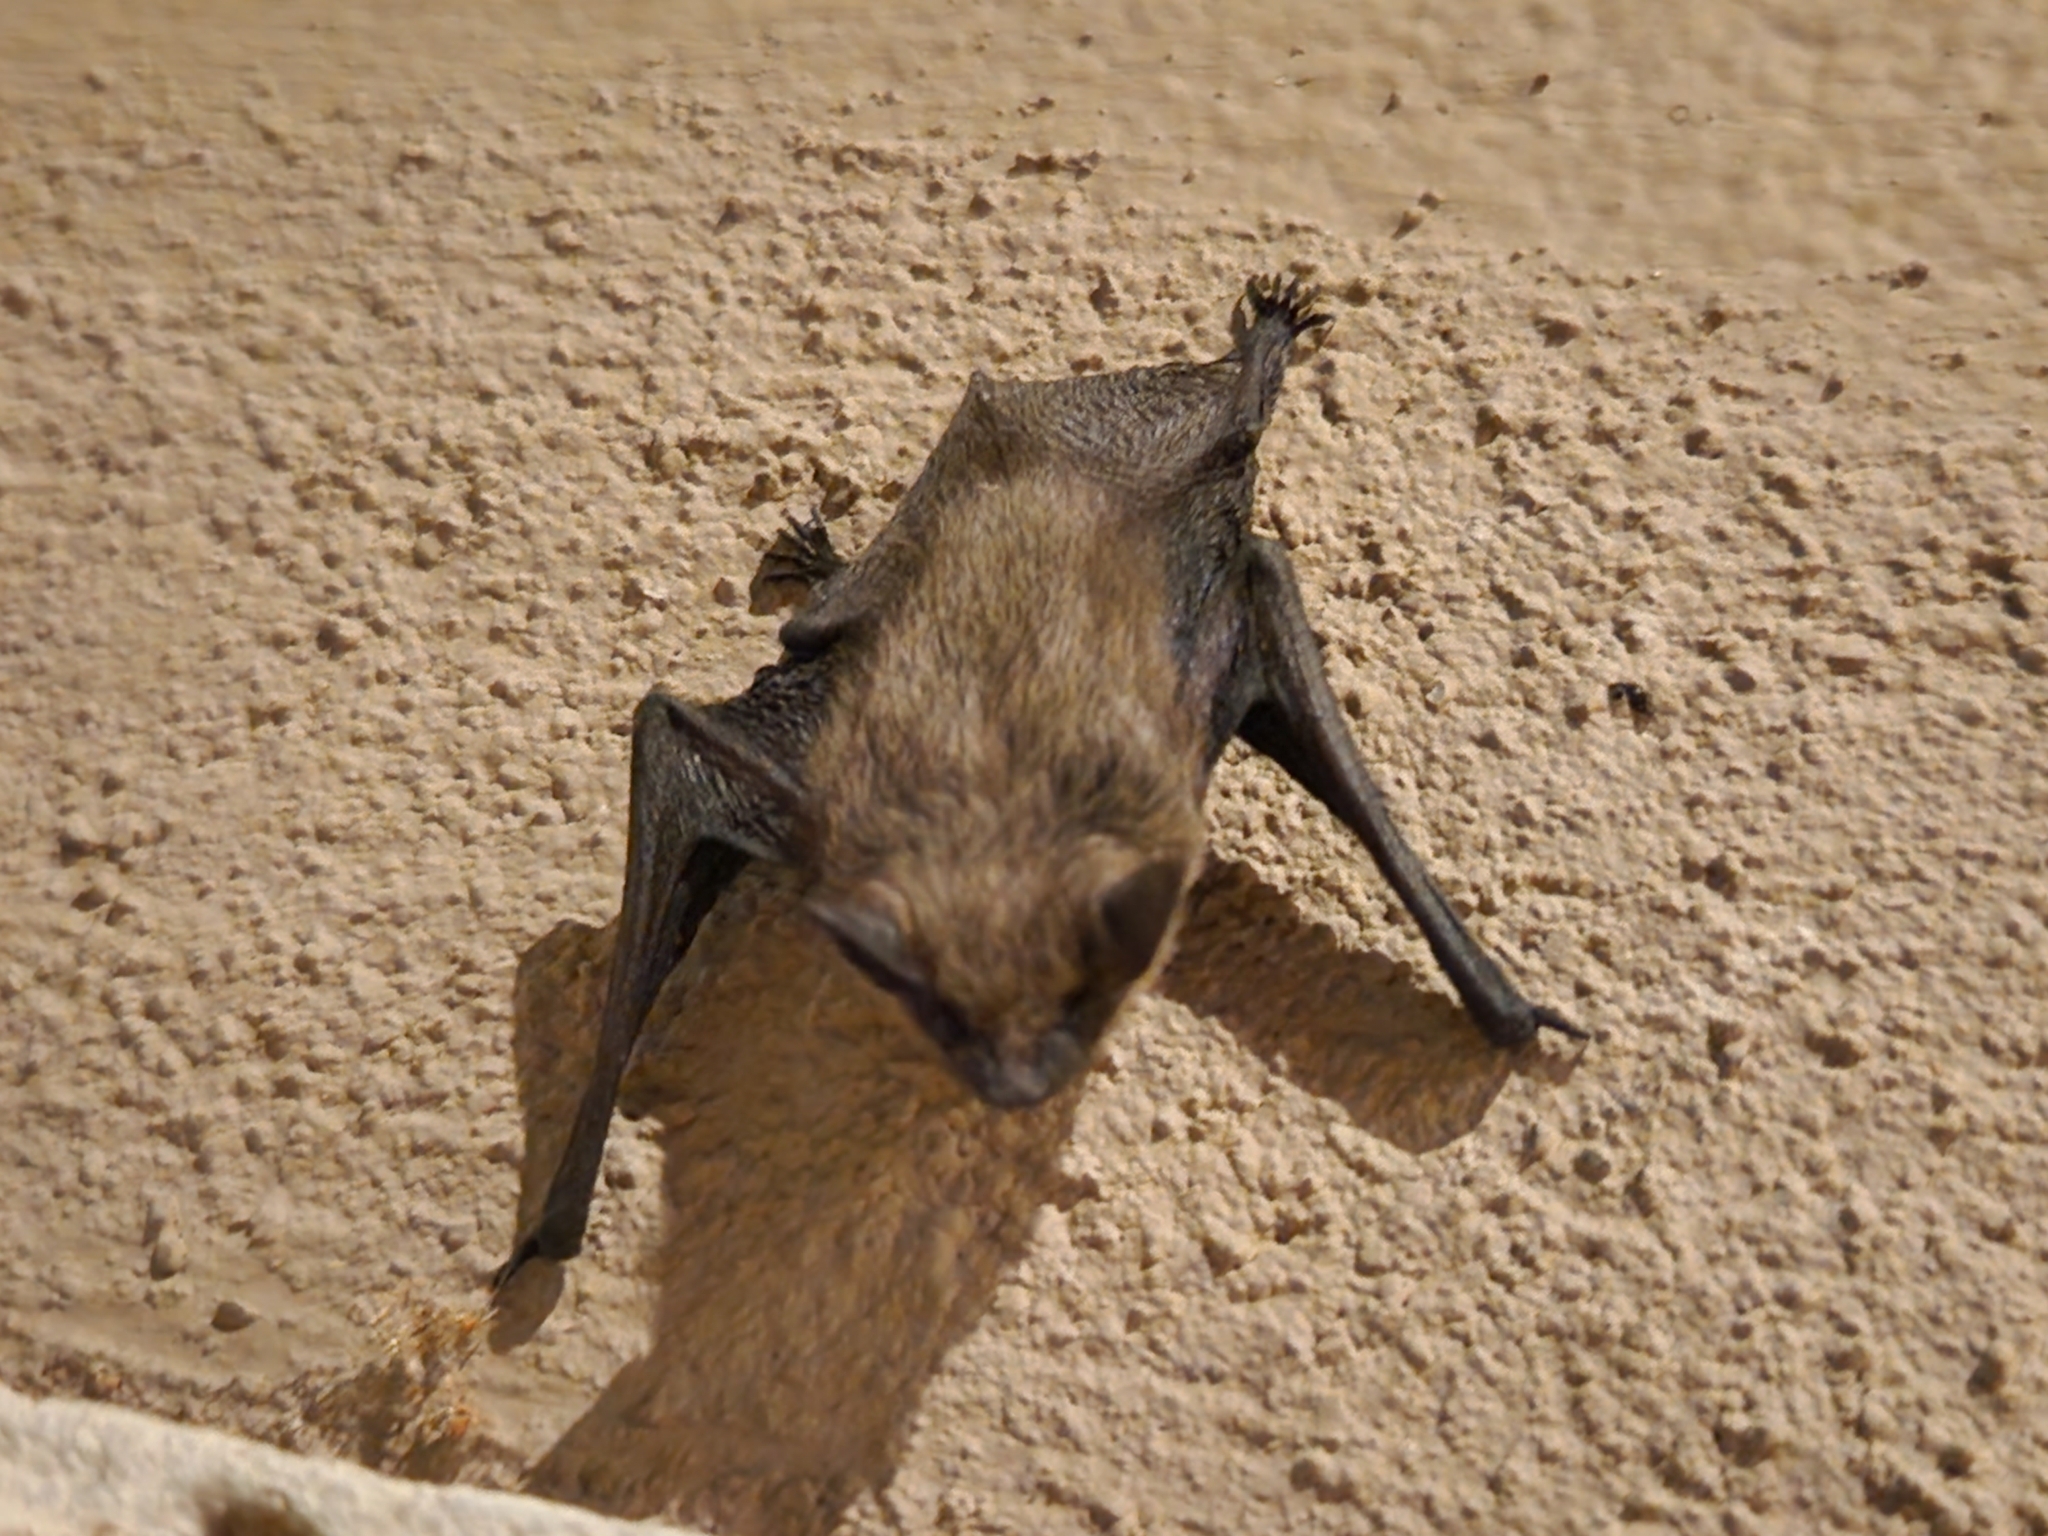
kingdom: Animalia
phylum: Chordata
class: Mammalia
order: Chiroptera
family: Vespertilionidae
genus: Parastrellus
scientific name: Parastrellus hesperus
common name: Canyon bat
